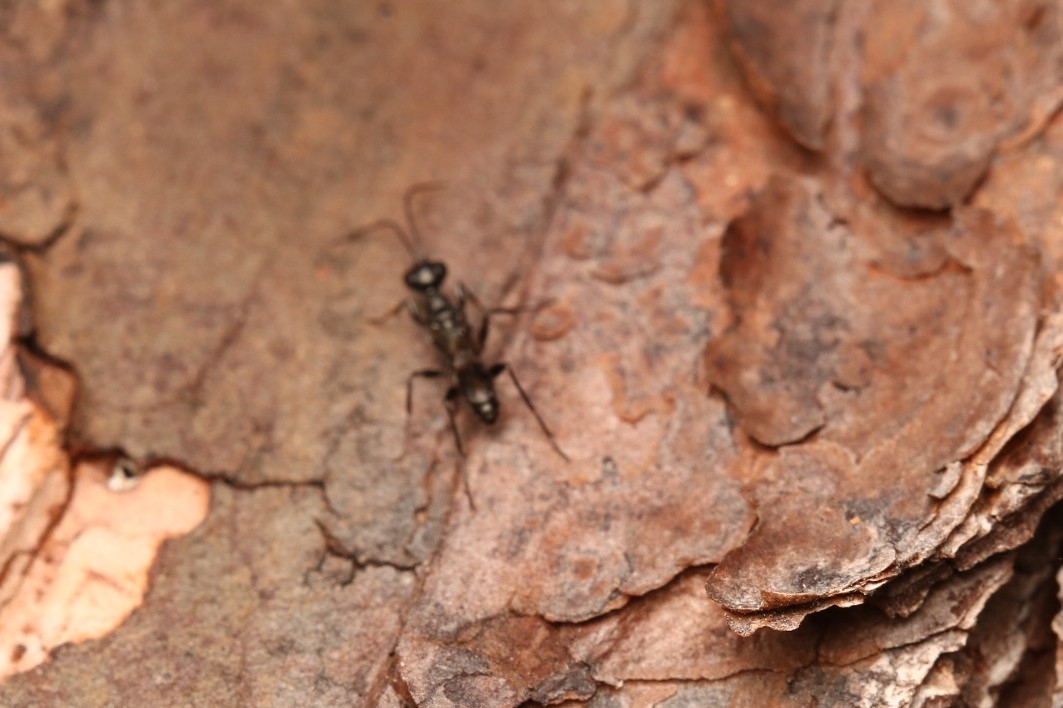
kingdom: Animalia
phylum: Arthropoda
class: Insecta
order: Hymenoptera
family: Ampulicidae
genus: Ampulex
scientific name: Ampulex canaliculata
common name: Cockroach wasp
